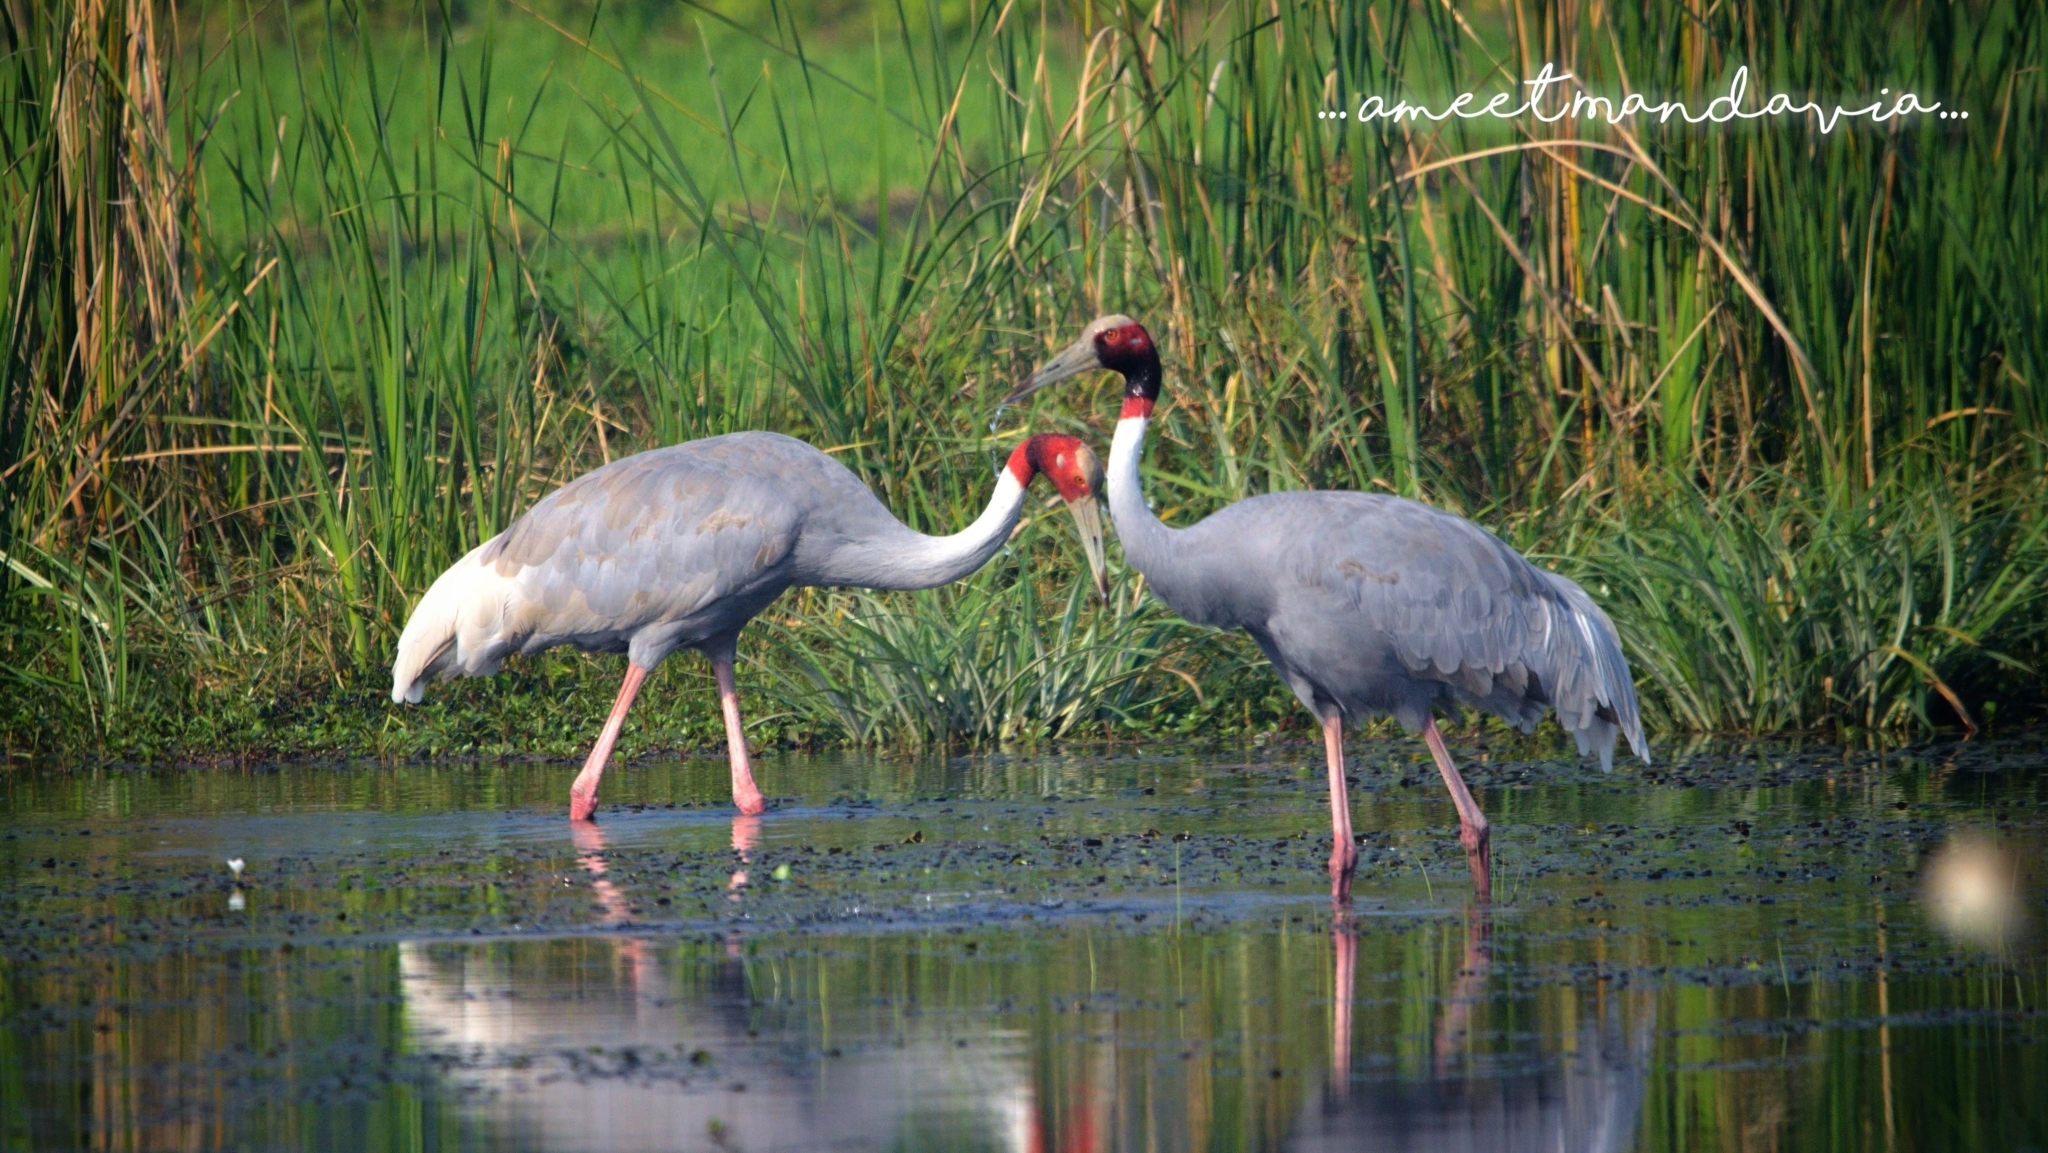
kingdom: Animalia
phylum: Chordata
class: Aves
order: Gruiformes
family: Gruidae
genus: Grus
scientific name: Grus antigone
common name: Sarus crane
